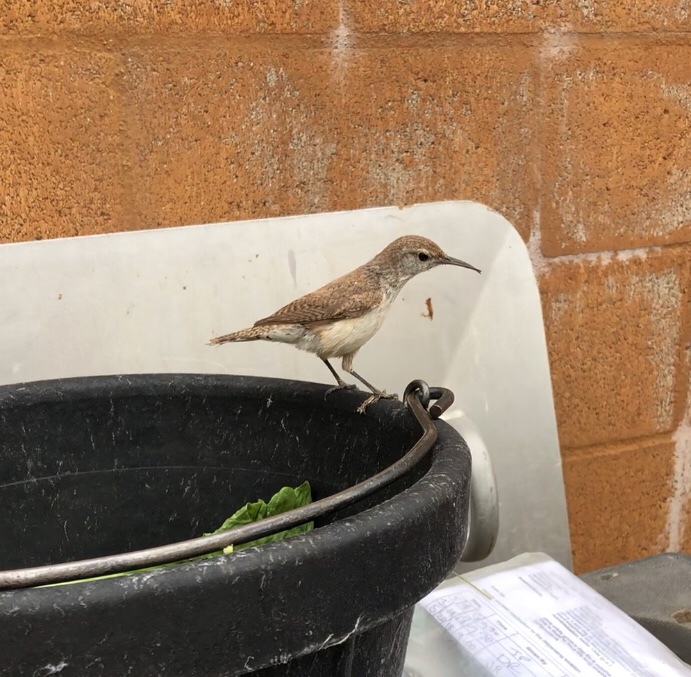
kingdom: Animalia
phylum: Chordata
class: Aves
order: Passeriformes
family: Troglodytidae
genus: Salpinctes
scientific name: Salpinctes obsoletus
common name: Rock wren
